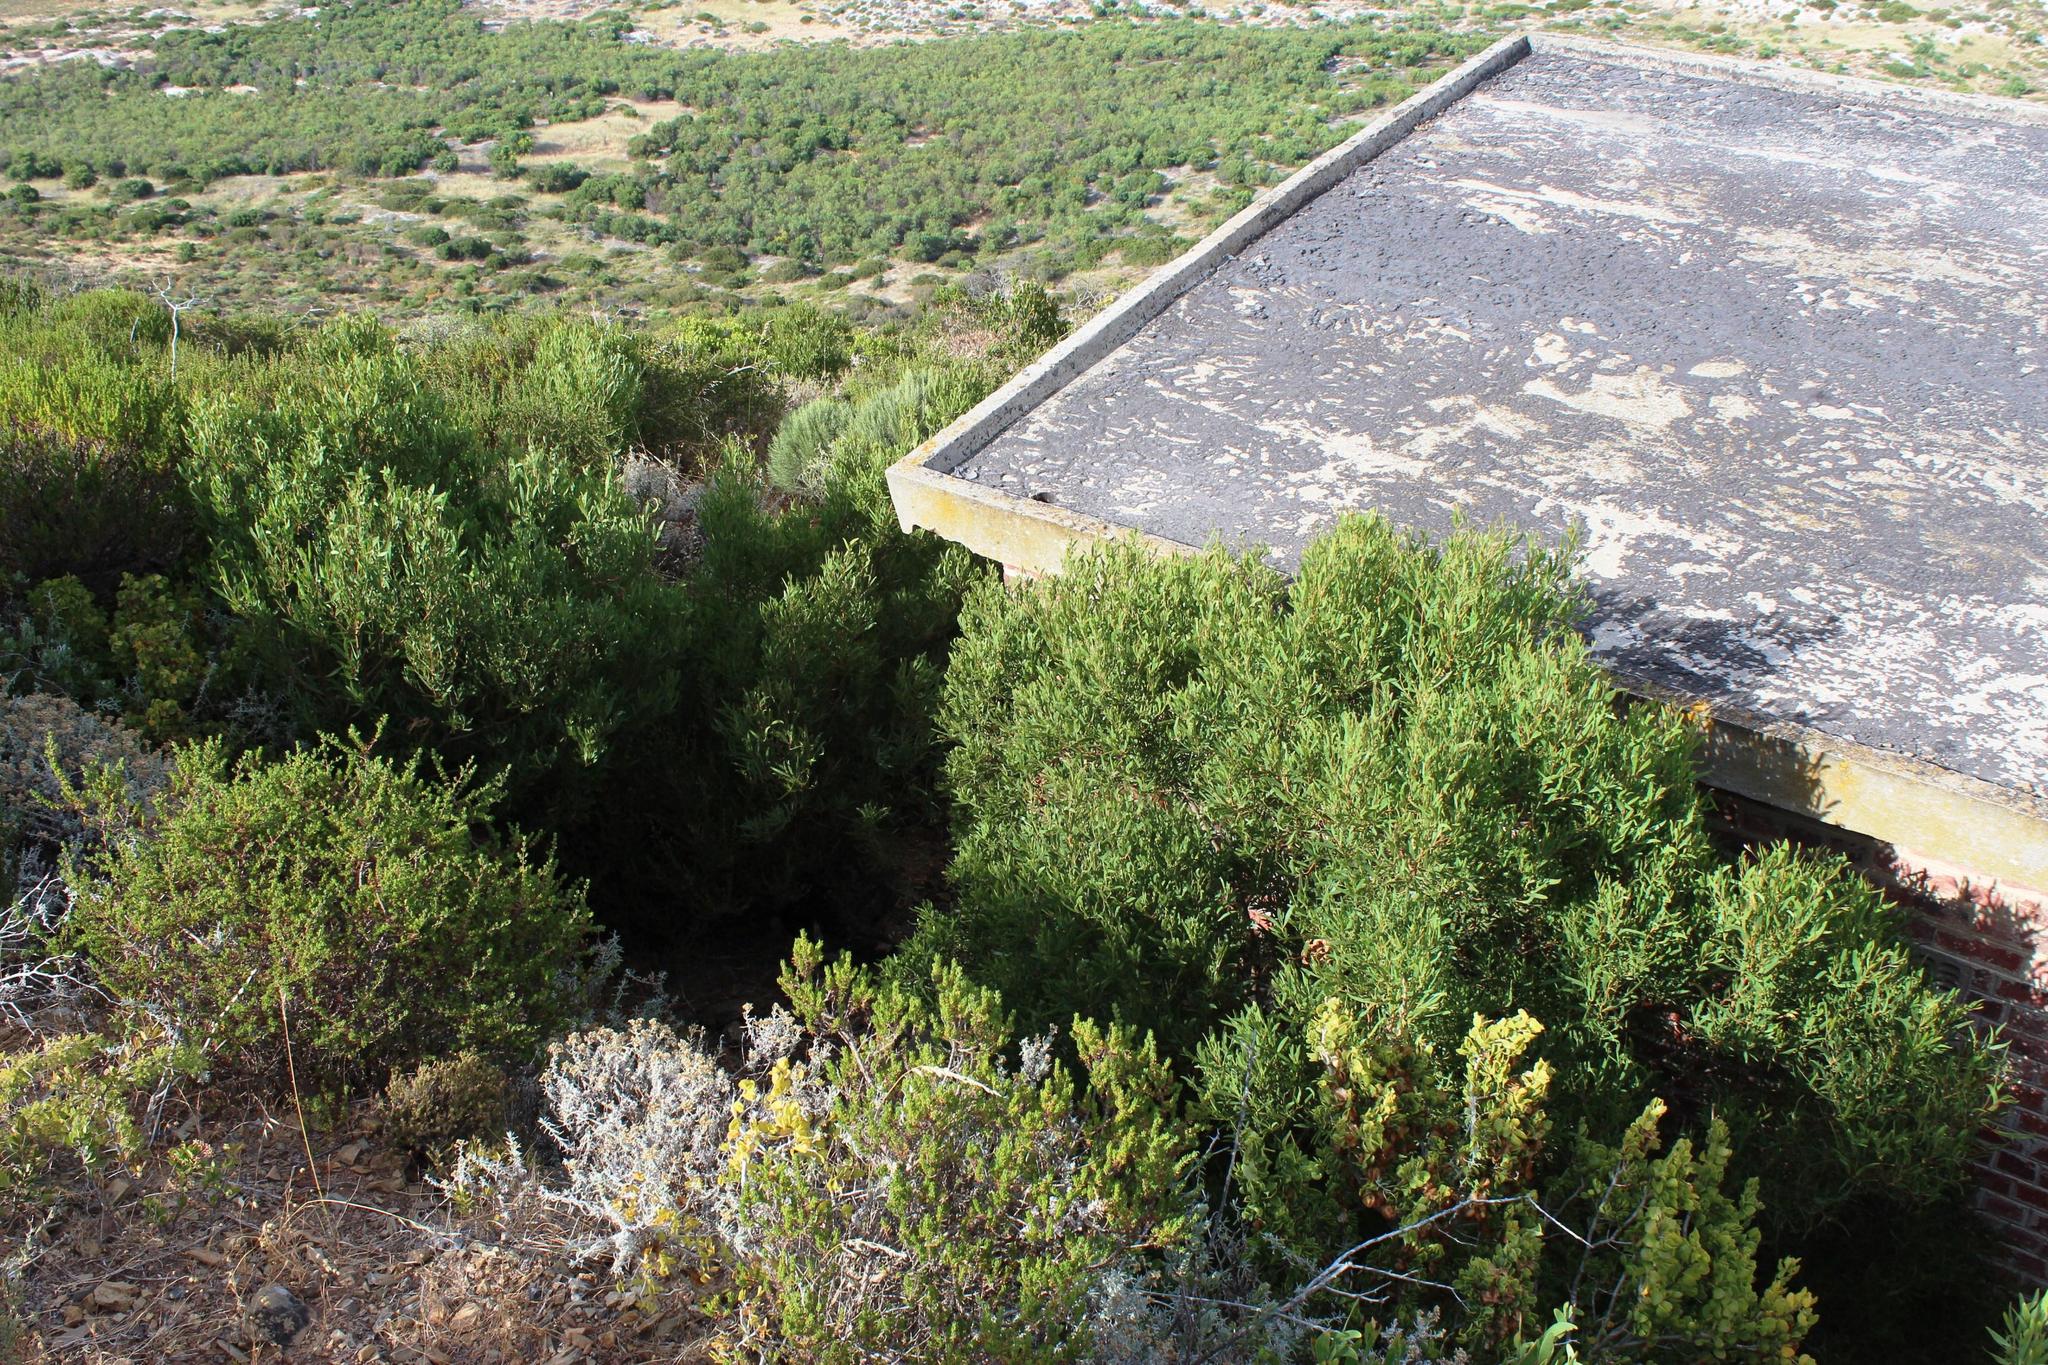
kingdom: Plantae
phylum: Tracheophyta
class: Magnoliopsida
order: Fabales
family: Fabaceae
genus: Acacia
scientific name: Acacia cyclops
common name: Coastal wattle
